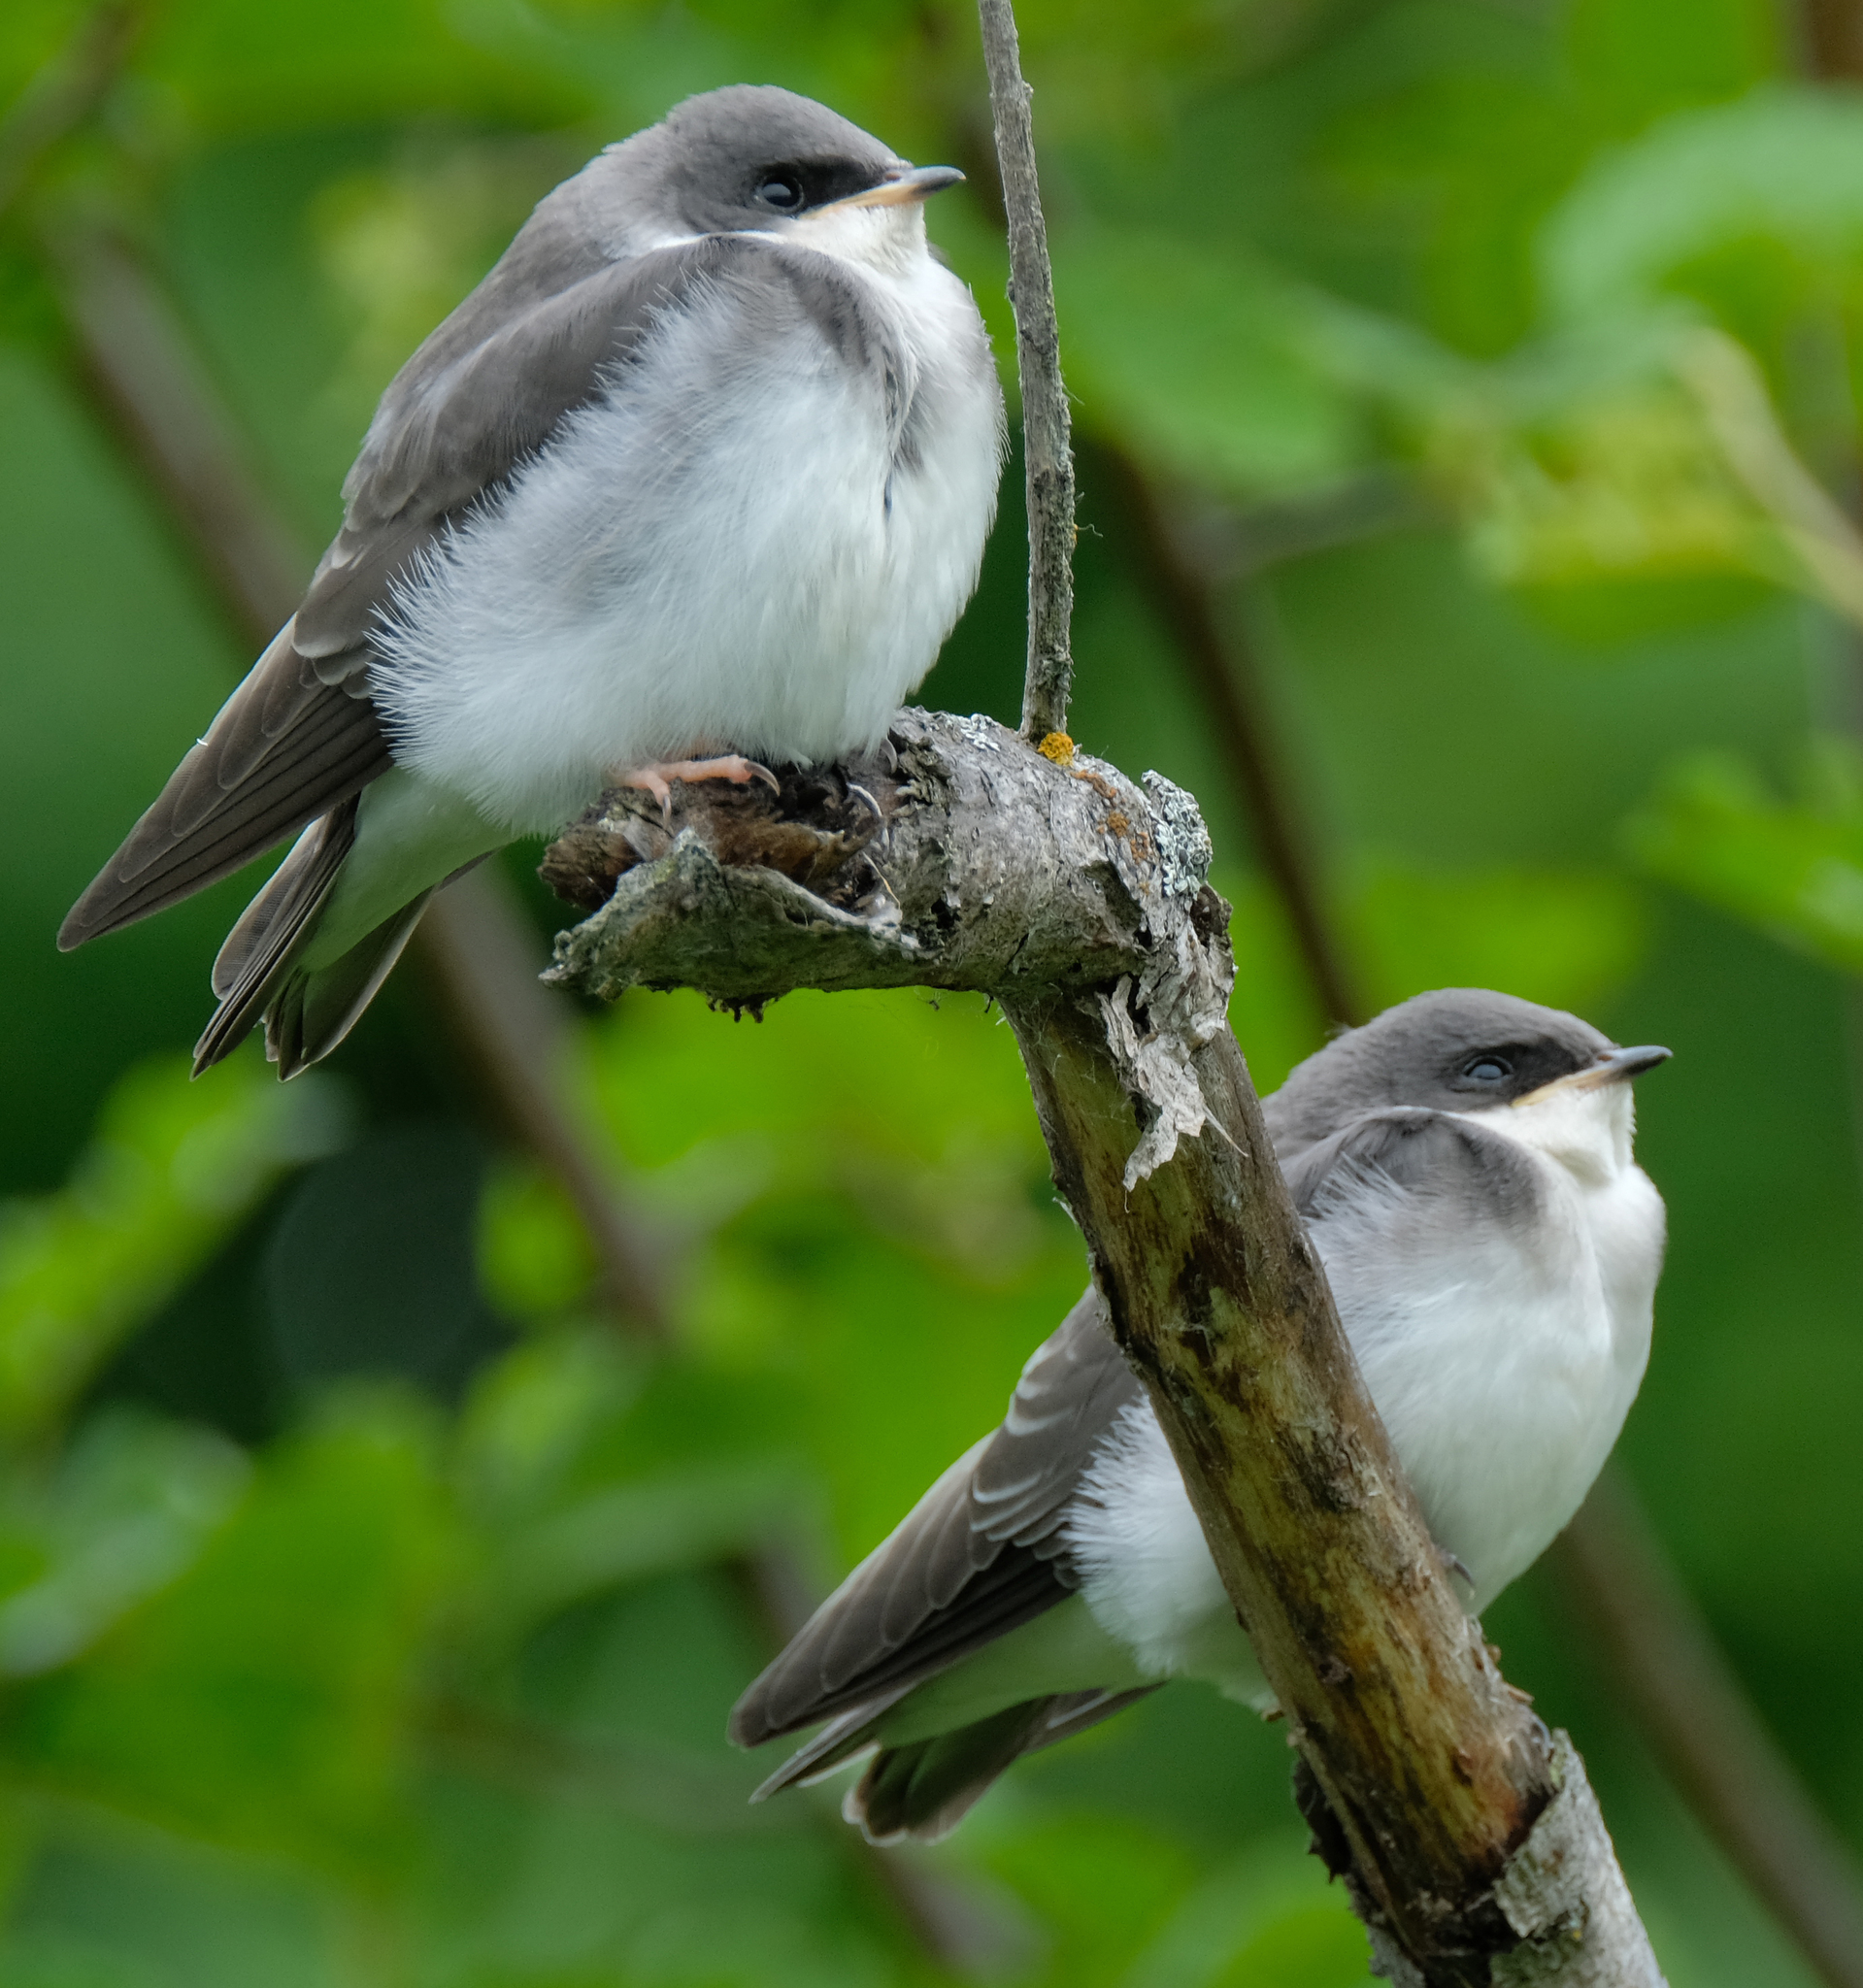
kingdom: Animalia
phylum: Chordata
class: Aves
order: Passeriformes
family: Hirundinidae
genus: Tachycineta
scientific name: Tachycineta bicolor
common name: Tree swallow
